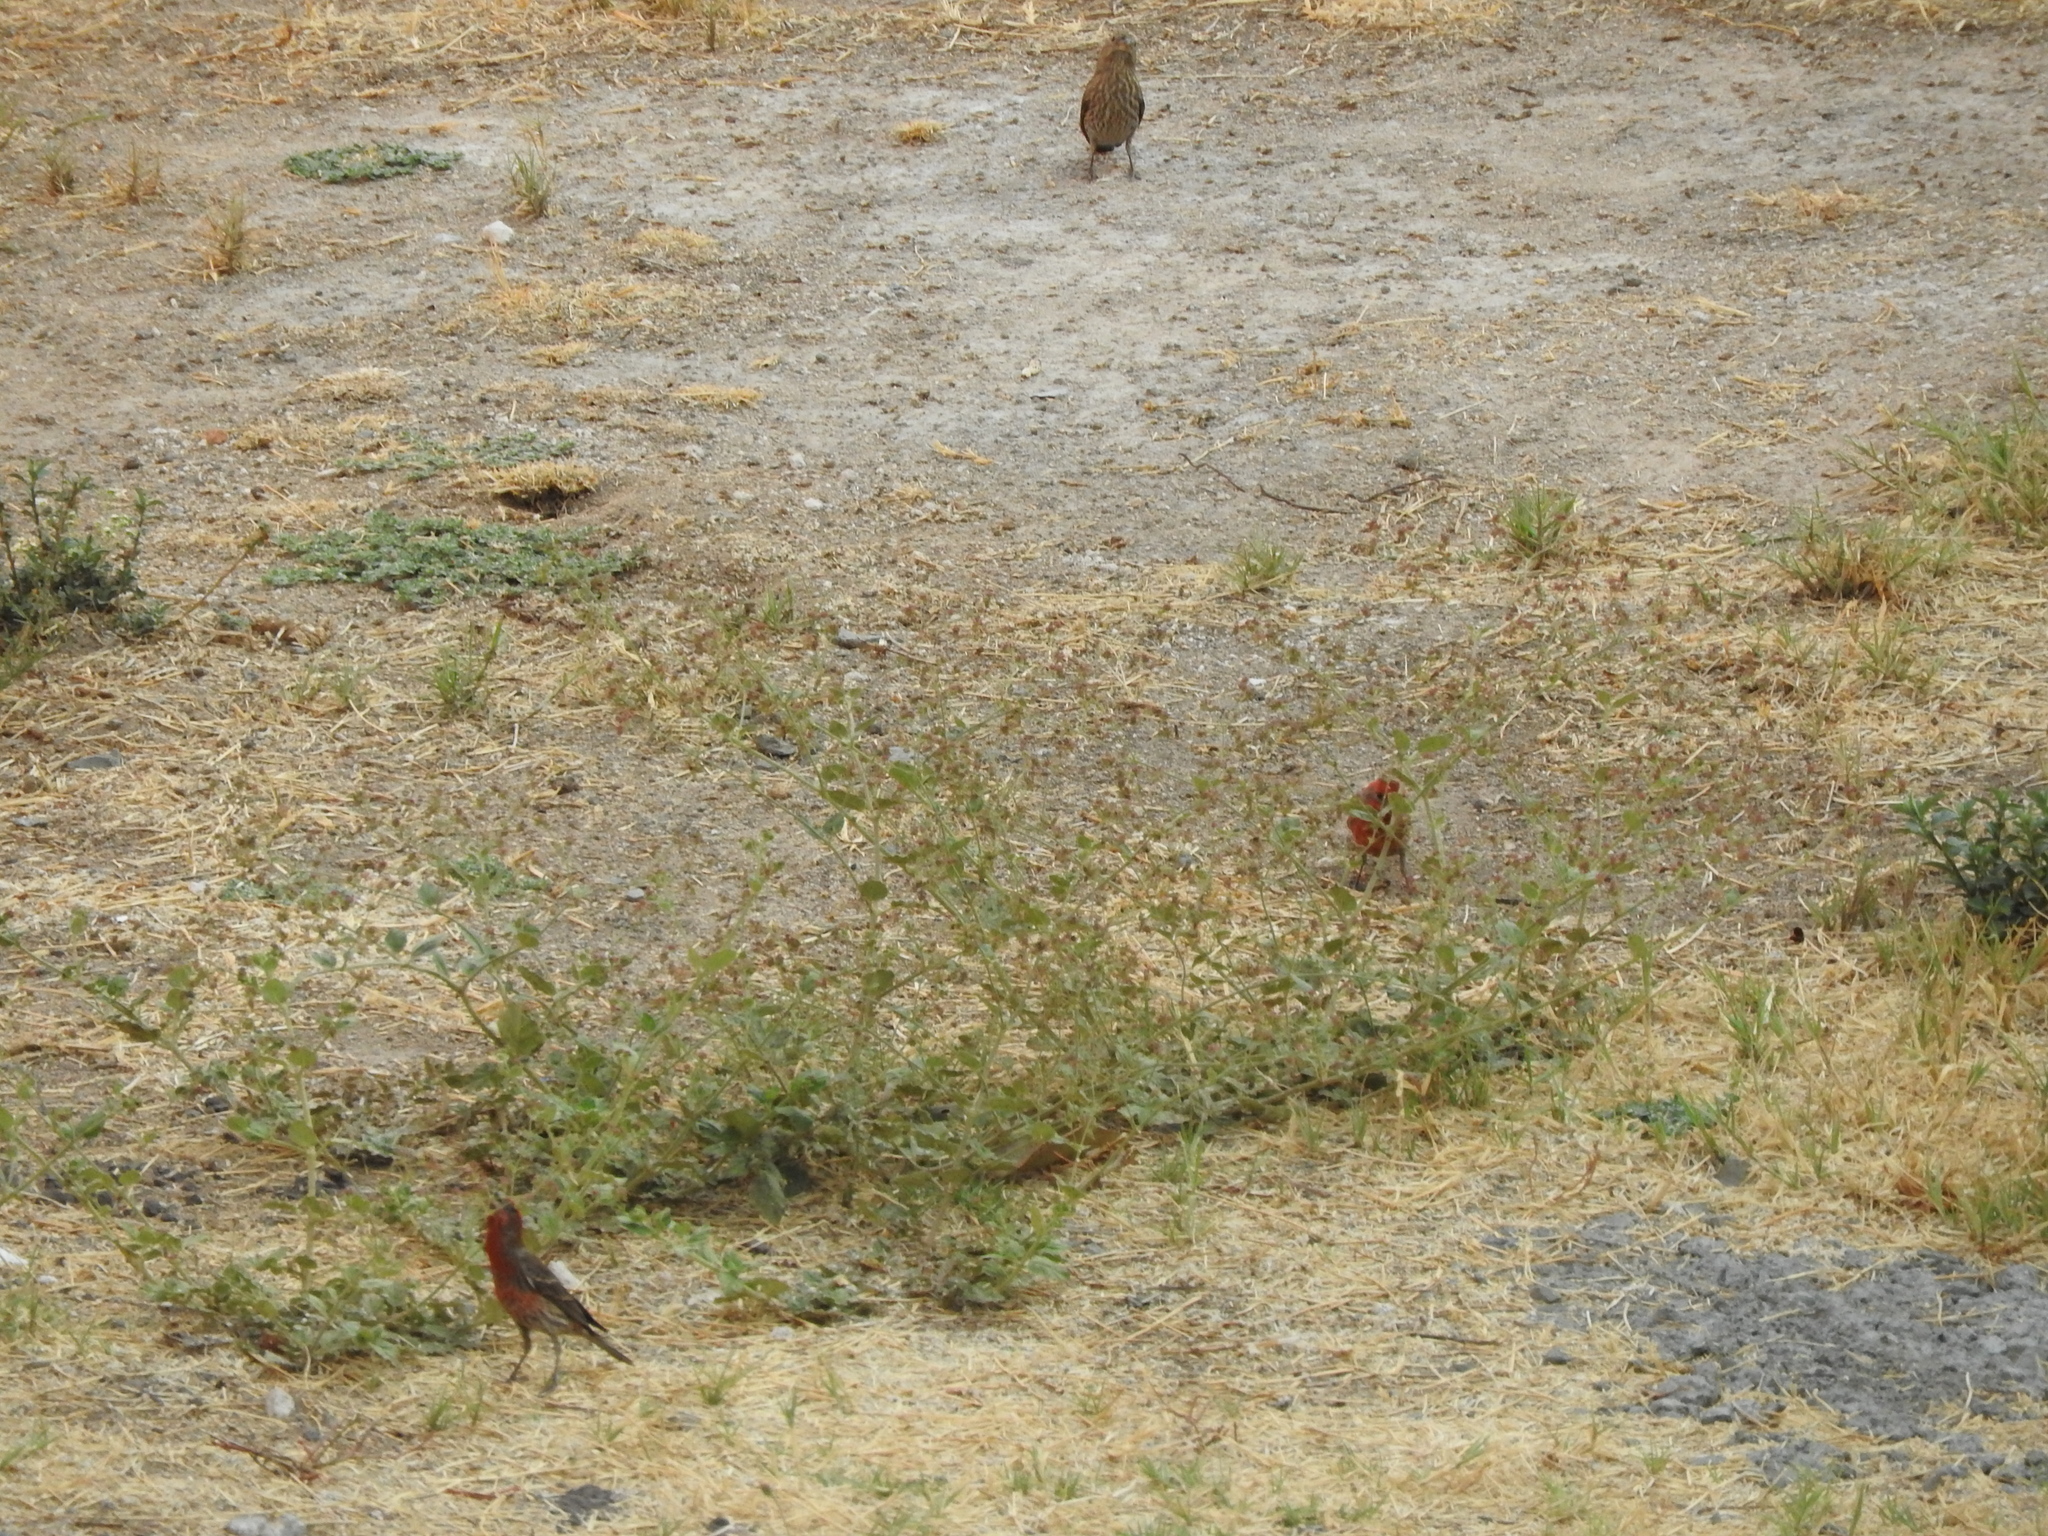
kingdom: Animalia
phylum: Chordata
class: Aves
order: Passeriformes
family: Fringillidae
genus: Haemorhous
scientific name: Haemorhous mexicanus
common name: House finch
